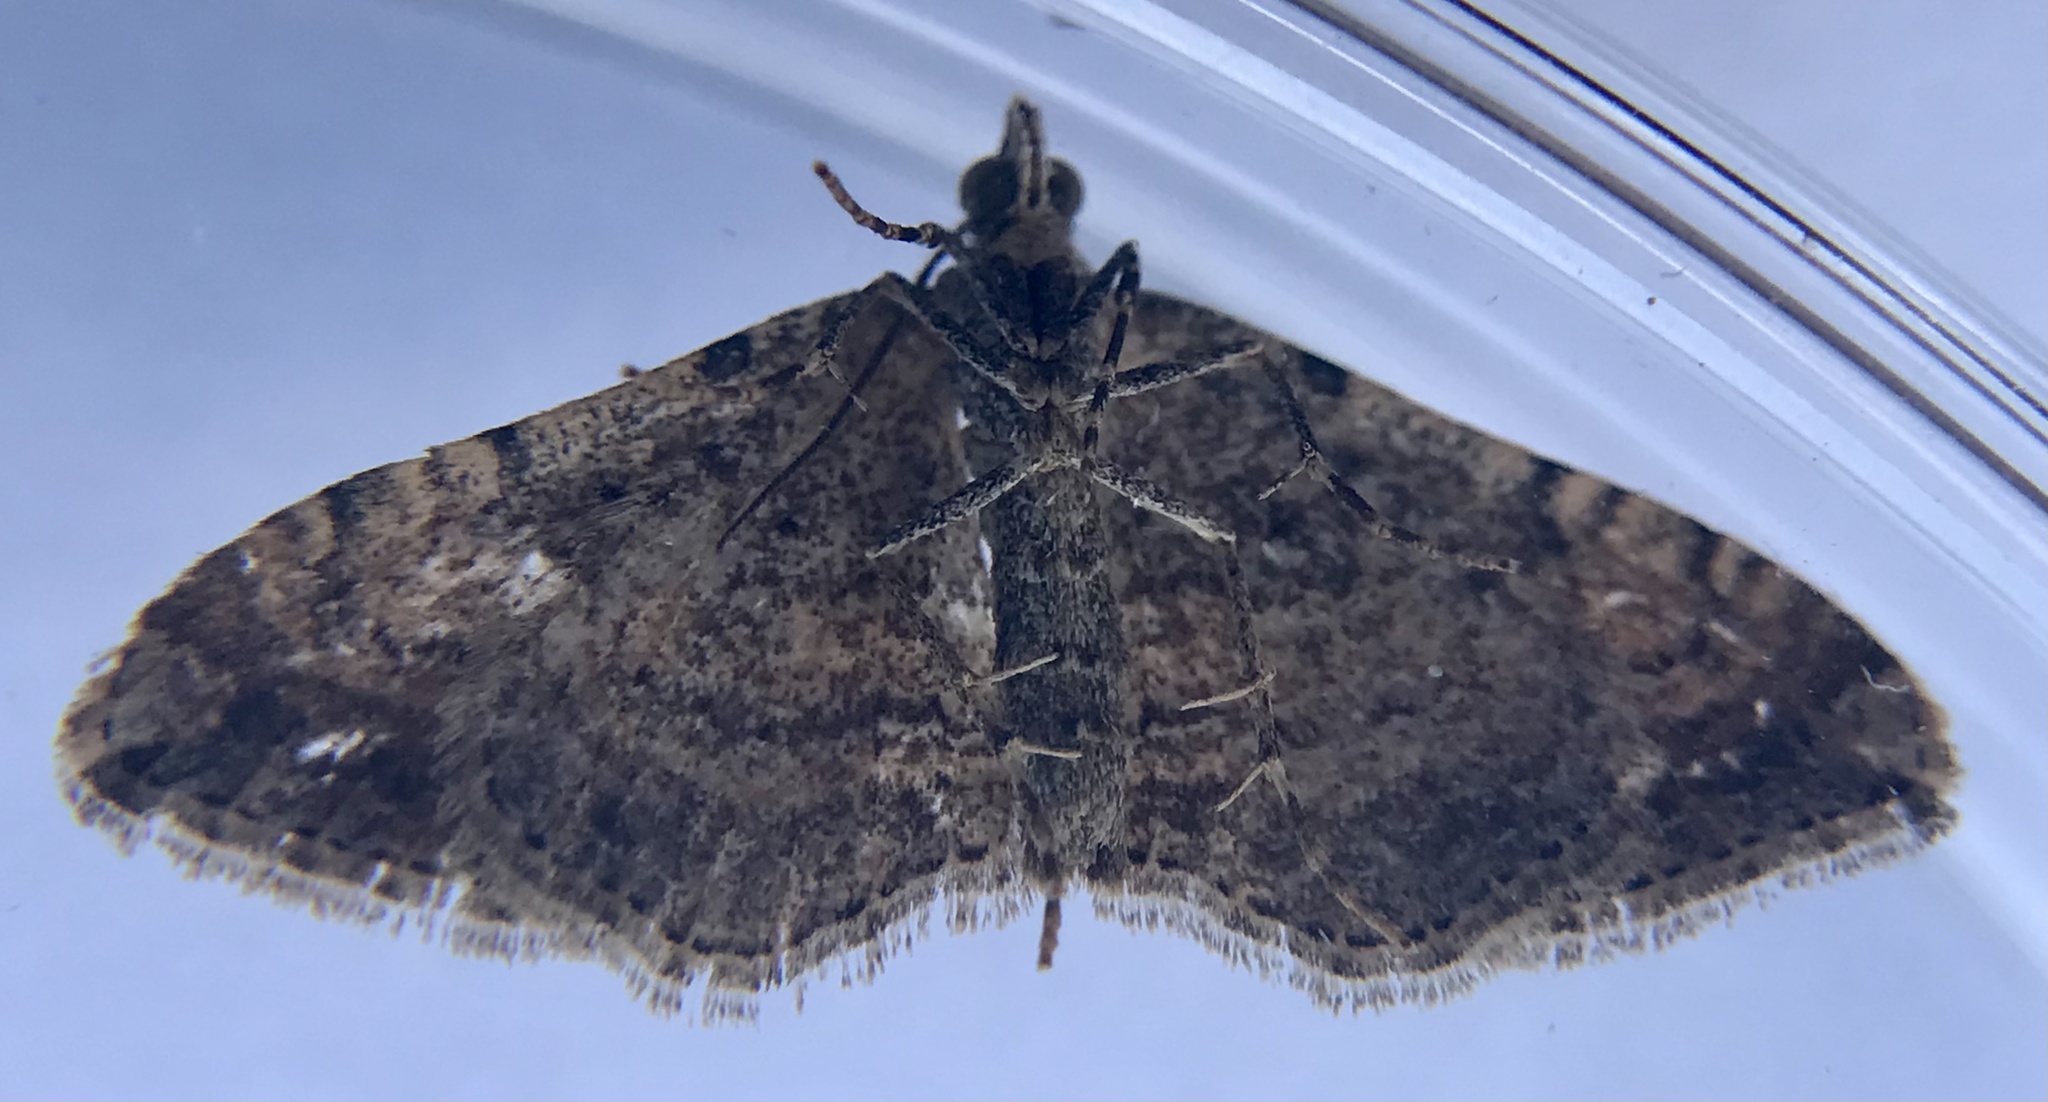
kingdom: Animalia
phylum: Arthropoda
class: Insecta
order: Lepidoptera
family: Geometridae
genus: Orthonama
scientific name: Orthonama obstipata
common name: The gem
